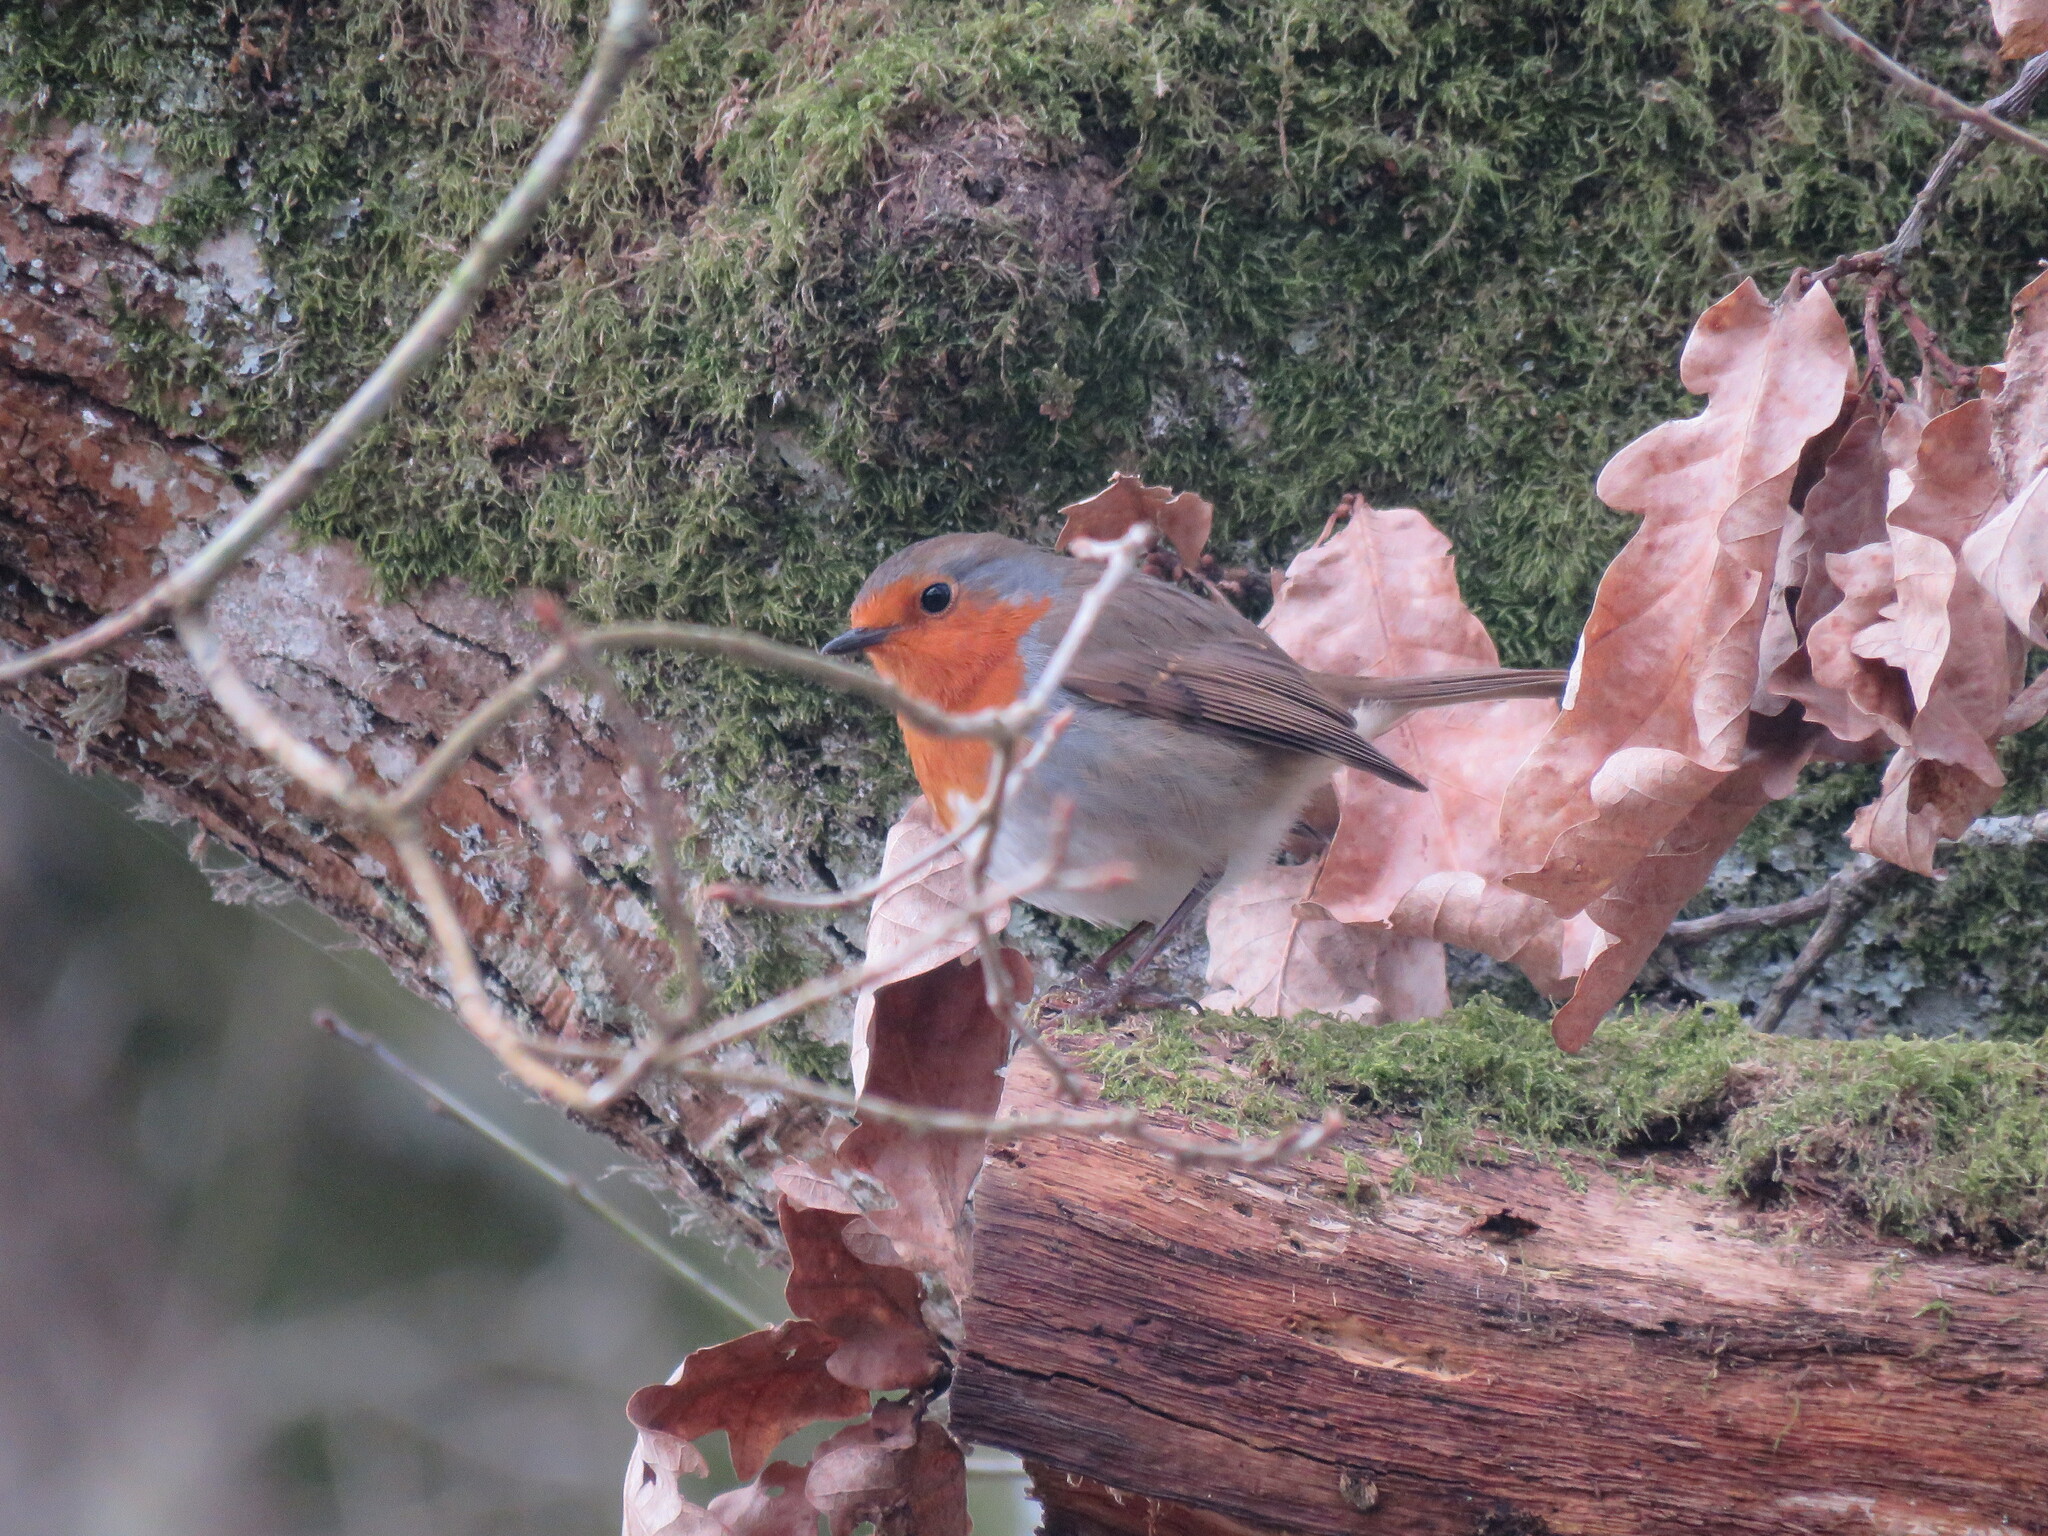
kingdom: Animalia
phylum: Chordata
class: Aves
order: Passeriformes
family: Muscicapidae
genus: Erithacus
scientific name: Erithacus rubecula
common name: European robin
